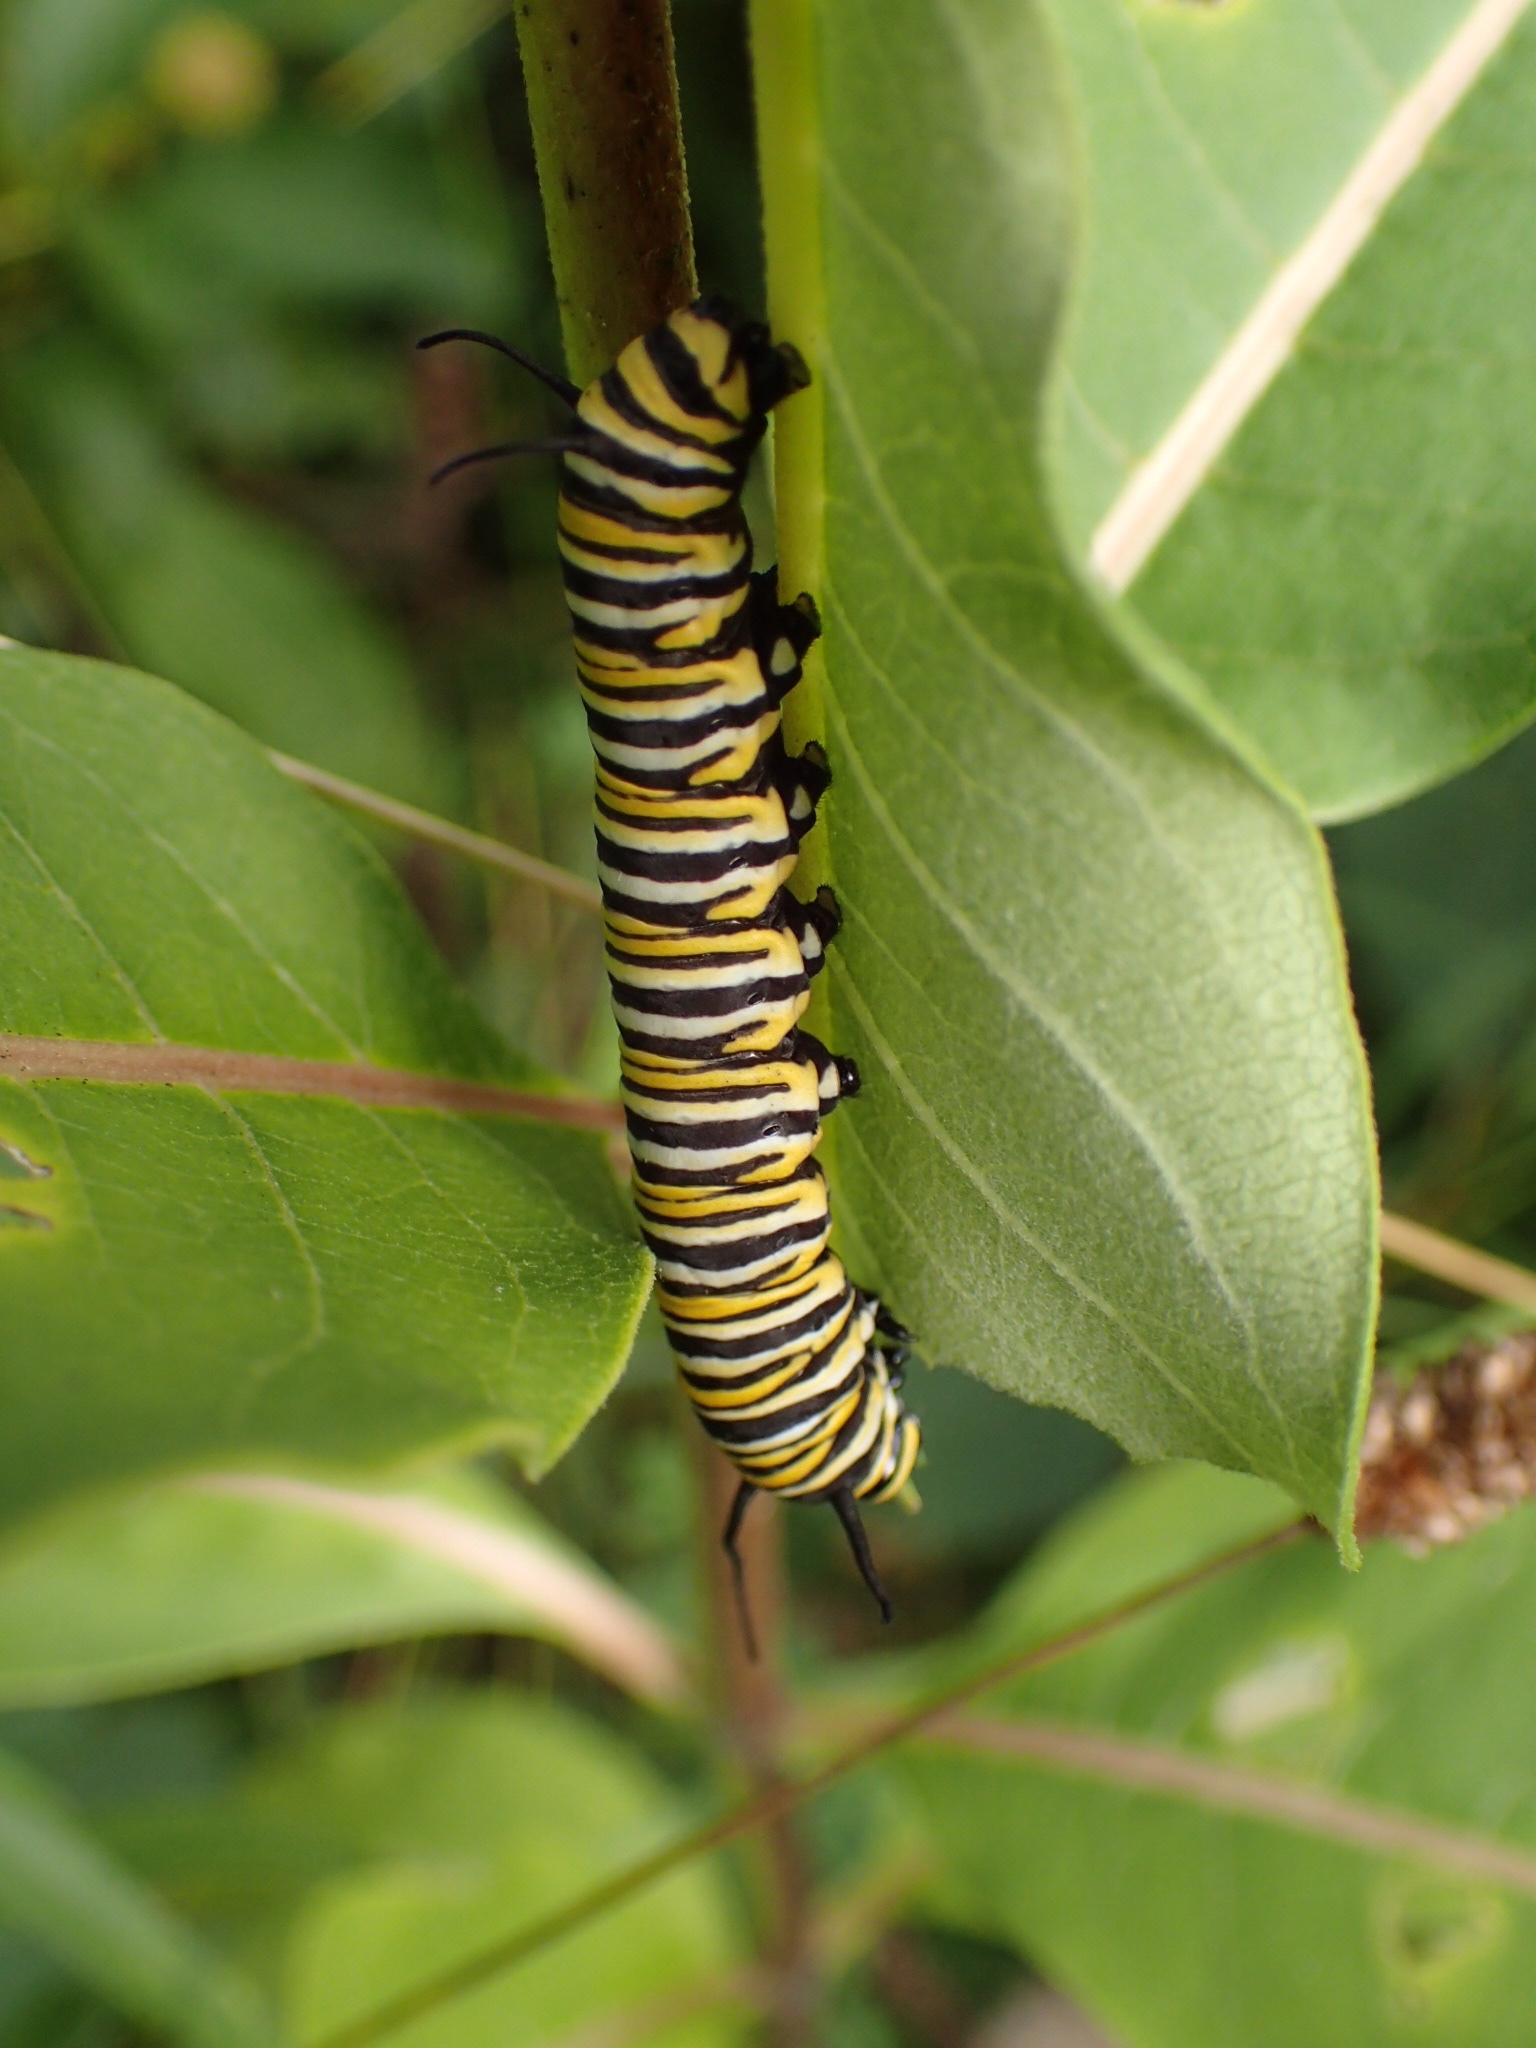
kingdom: Animalia
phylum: Arthropoda
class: Insecta
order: Lepidoptera
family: Nymphalidae
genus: Danaus
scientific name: Danaus plexippus
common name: Monarch
